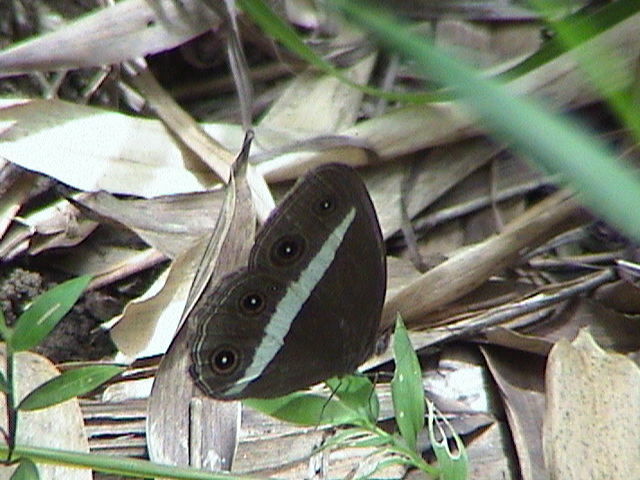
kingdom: Animalia
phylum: Arthropoda
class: Insecta
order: Lepidoptera
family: Nymphalidae
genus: Orsotriaena
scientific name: Orsotriaena medus
